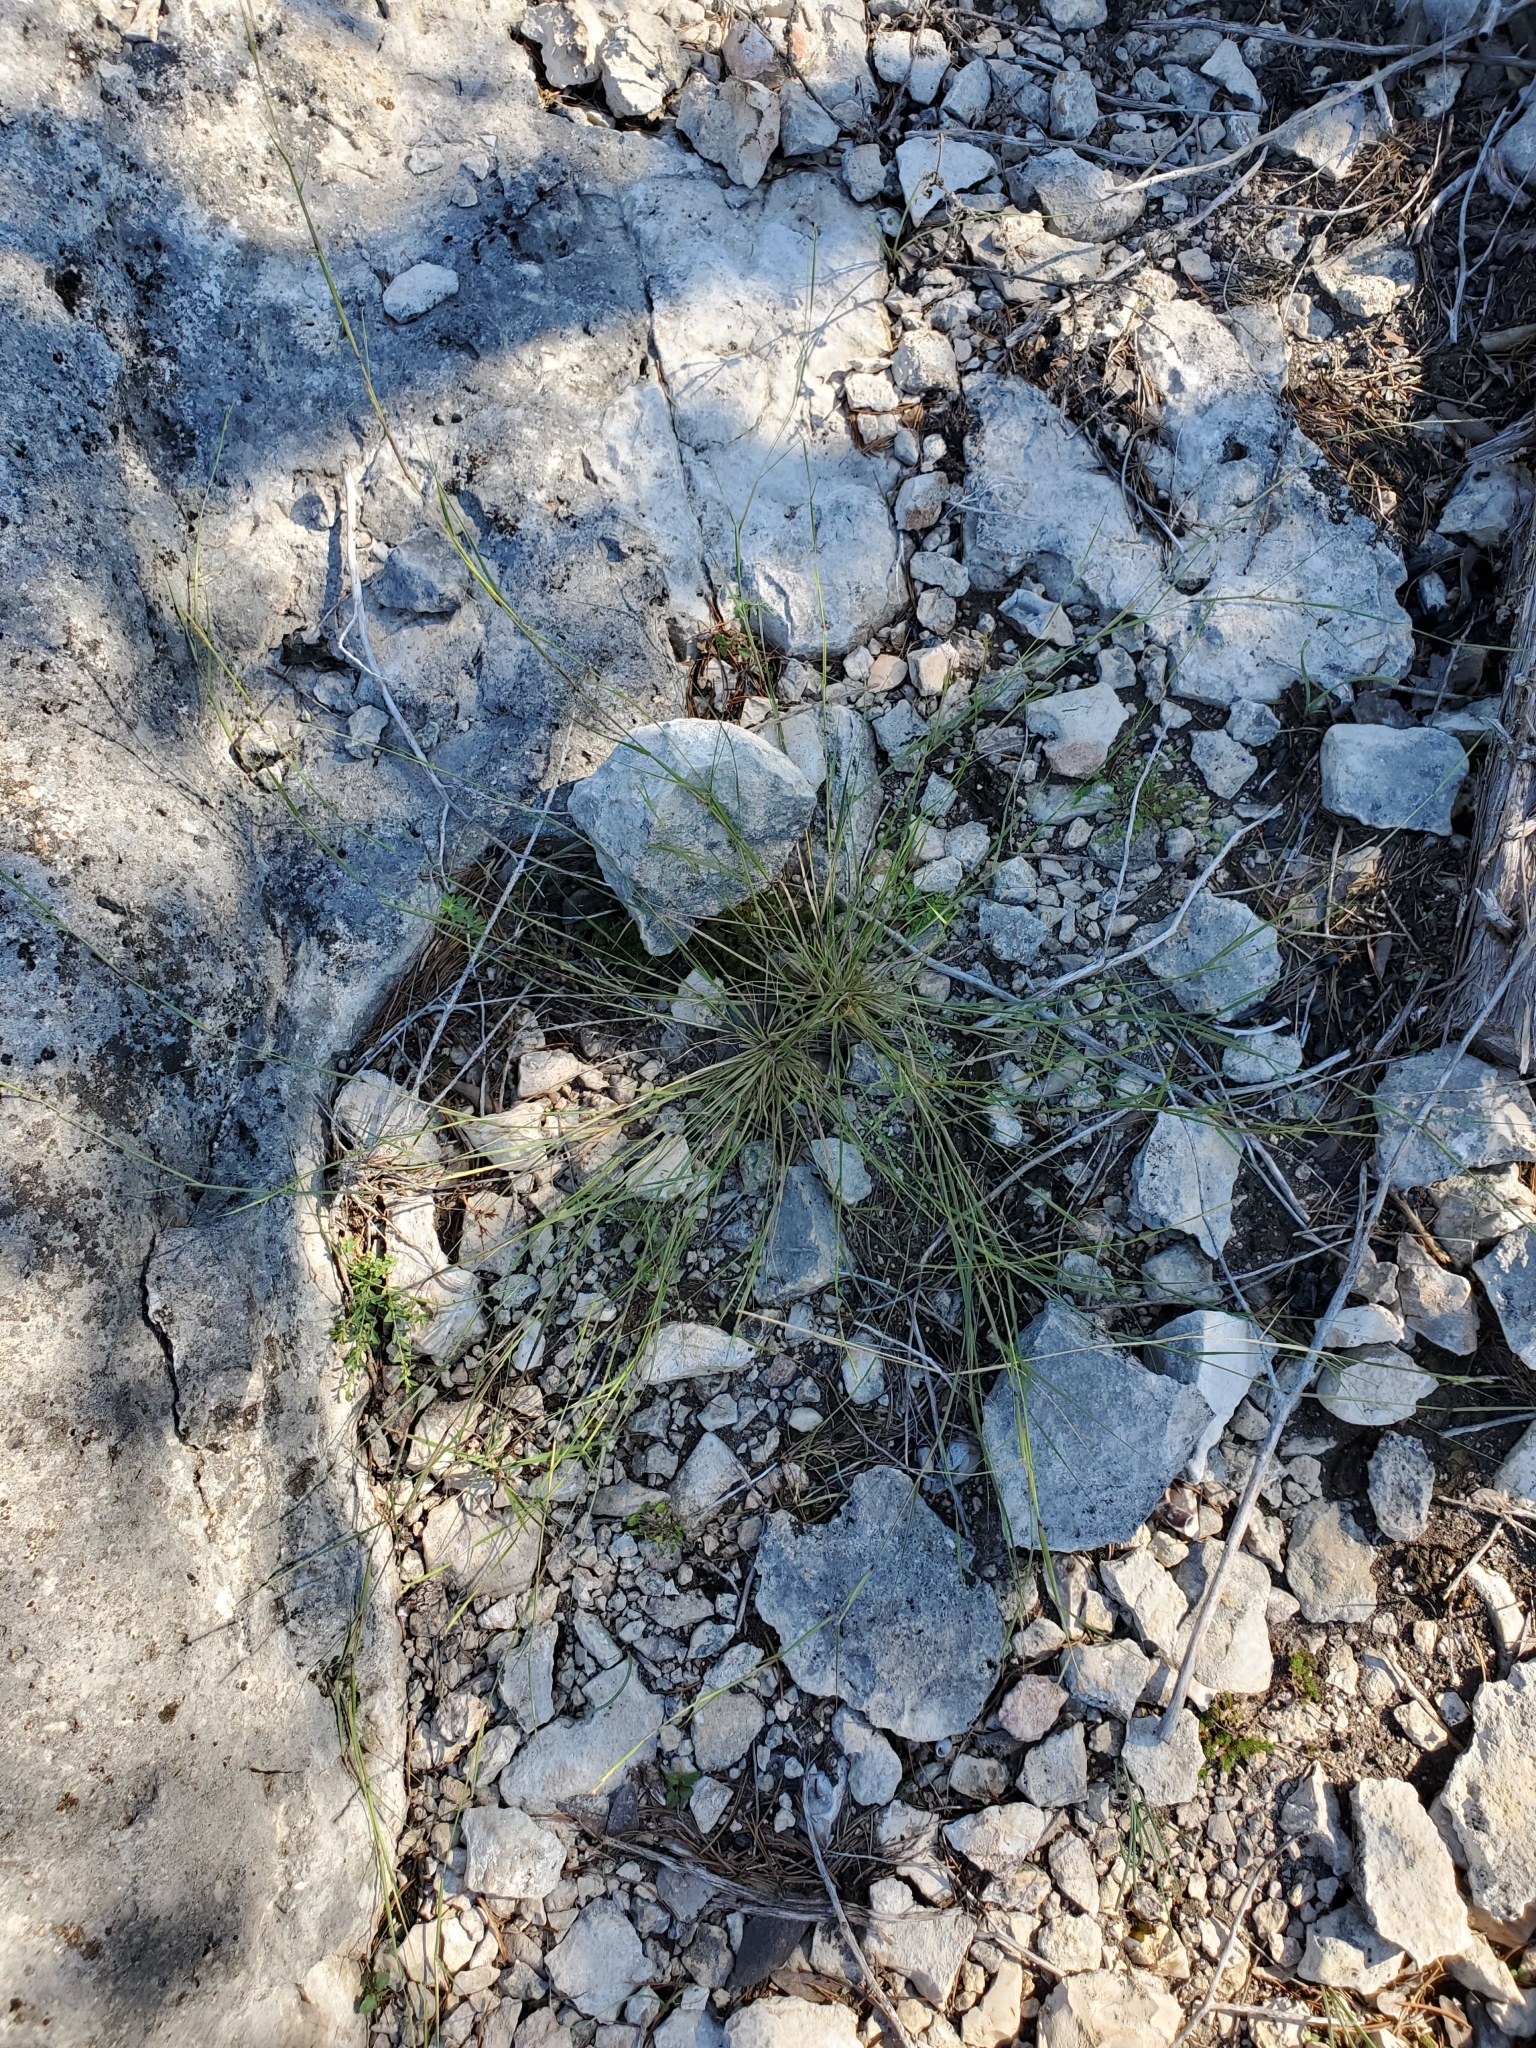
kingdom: Plantae
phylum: Tracheophyta
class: Liliopsida
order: Poales
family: Poaceae
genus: Sporobolus
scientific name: Sporobolus vaginiflorus
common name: Poverty dropseed
